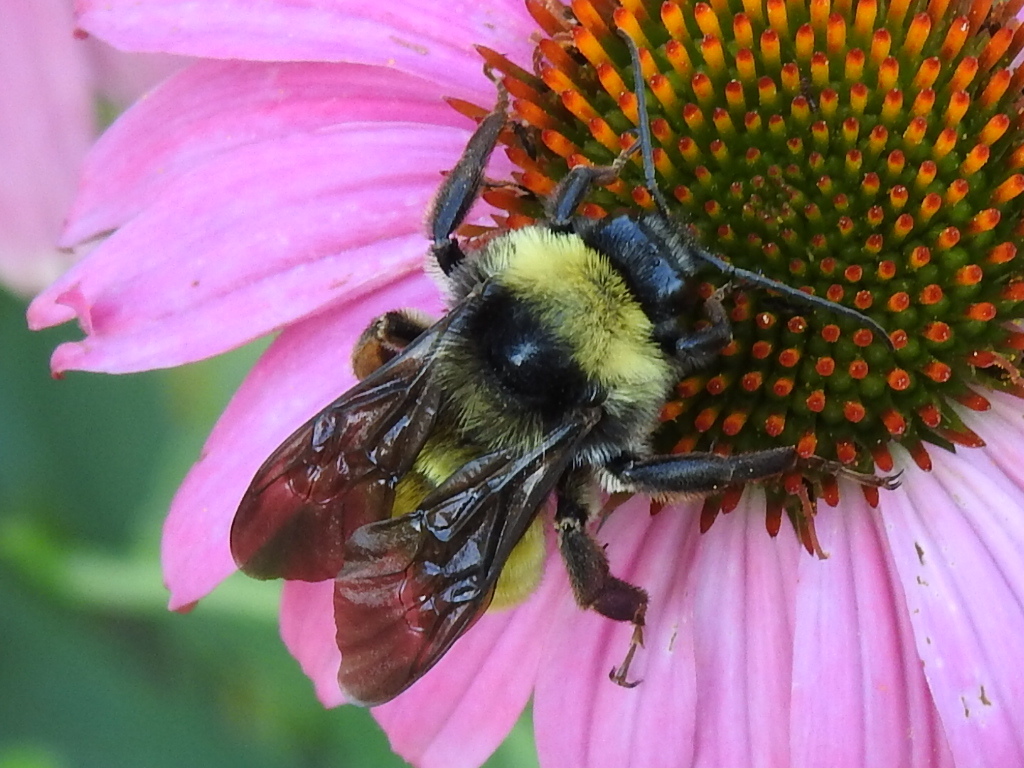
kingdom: Animalia
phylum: Arthropoda
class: Insecta
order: Hymenoptera
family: Apidae
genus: Bombus
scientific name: Bombus pensylvanicus
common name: Bumble bee
